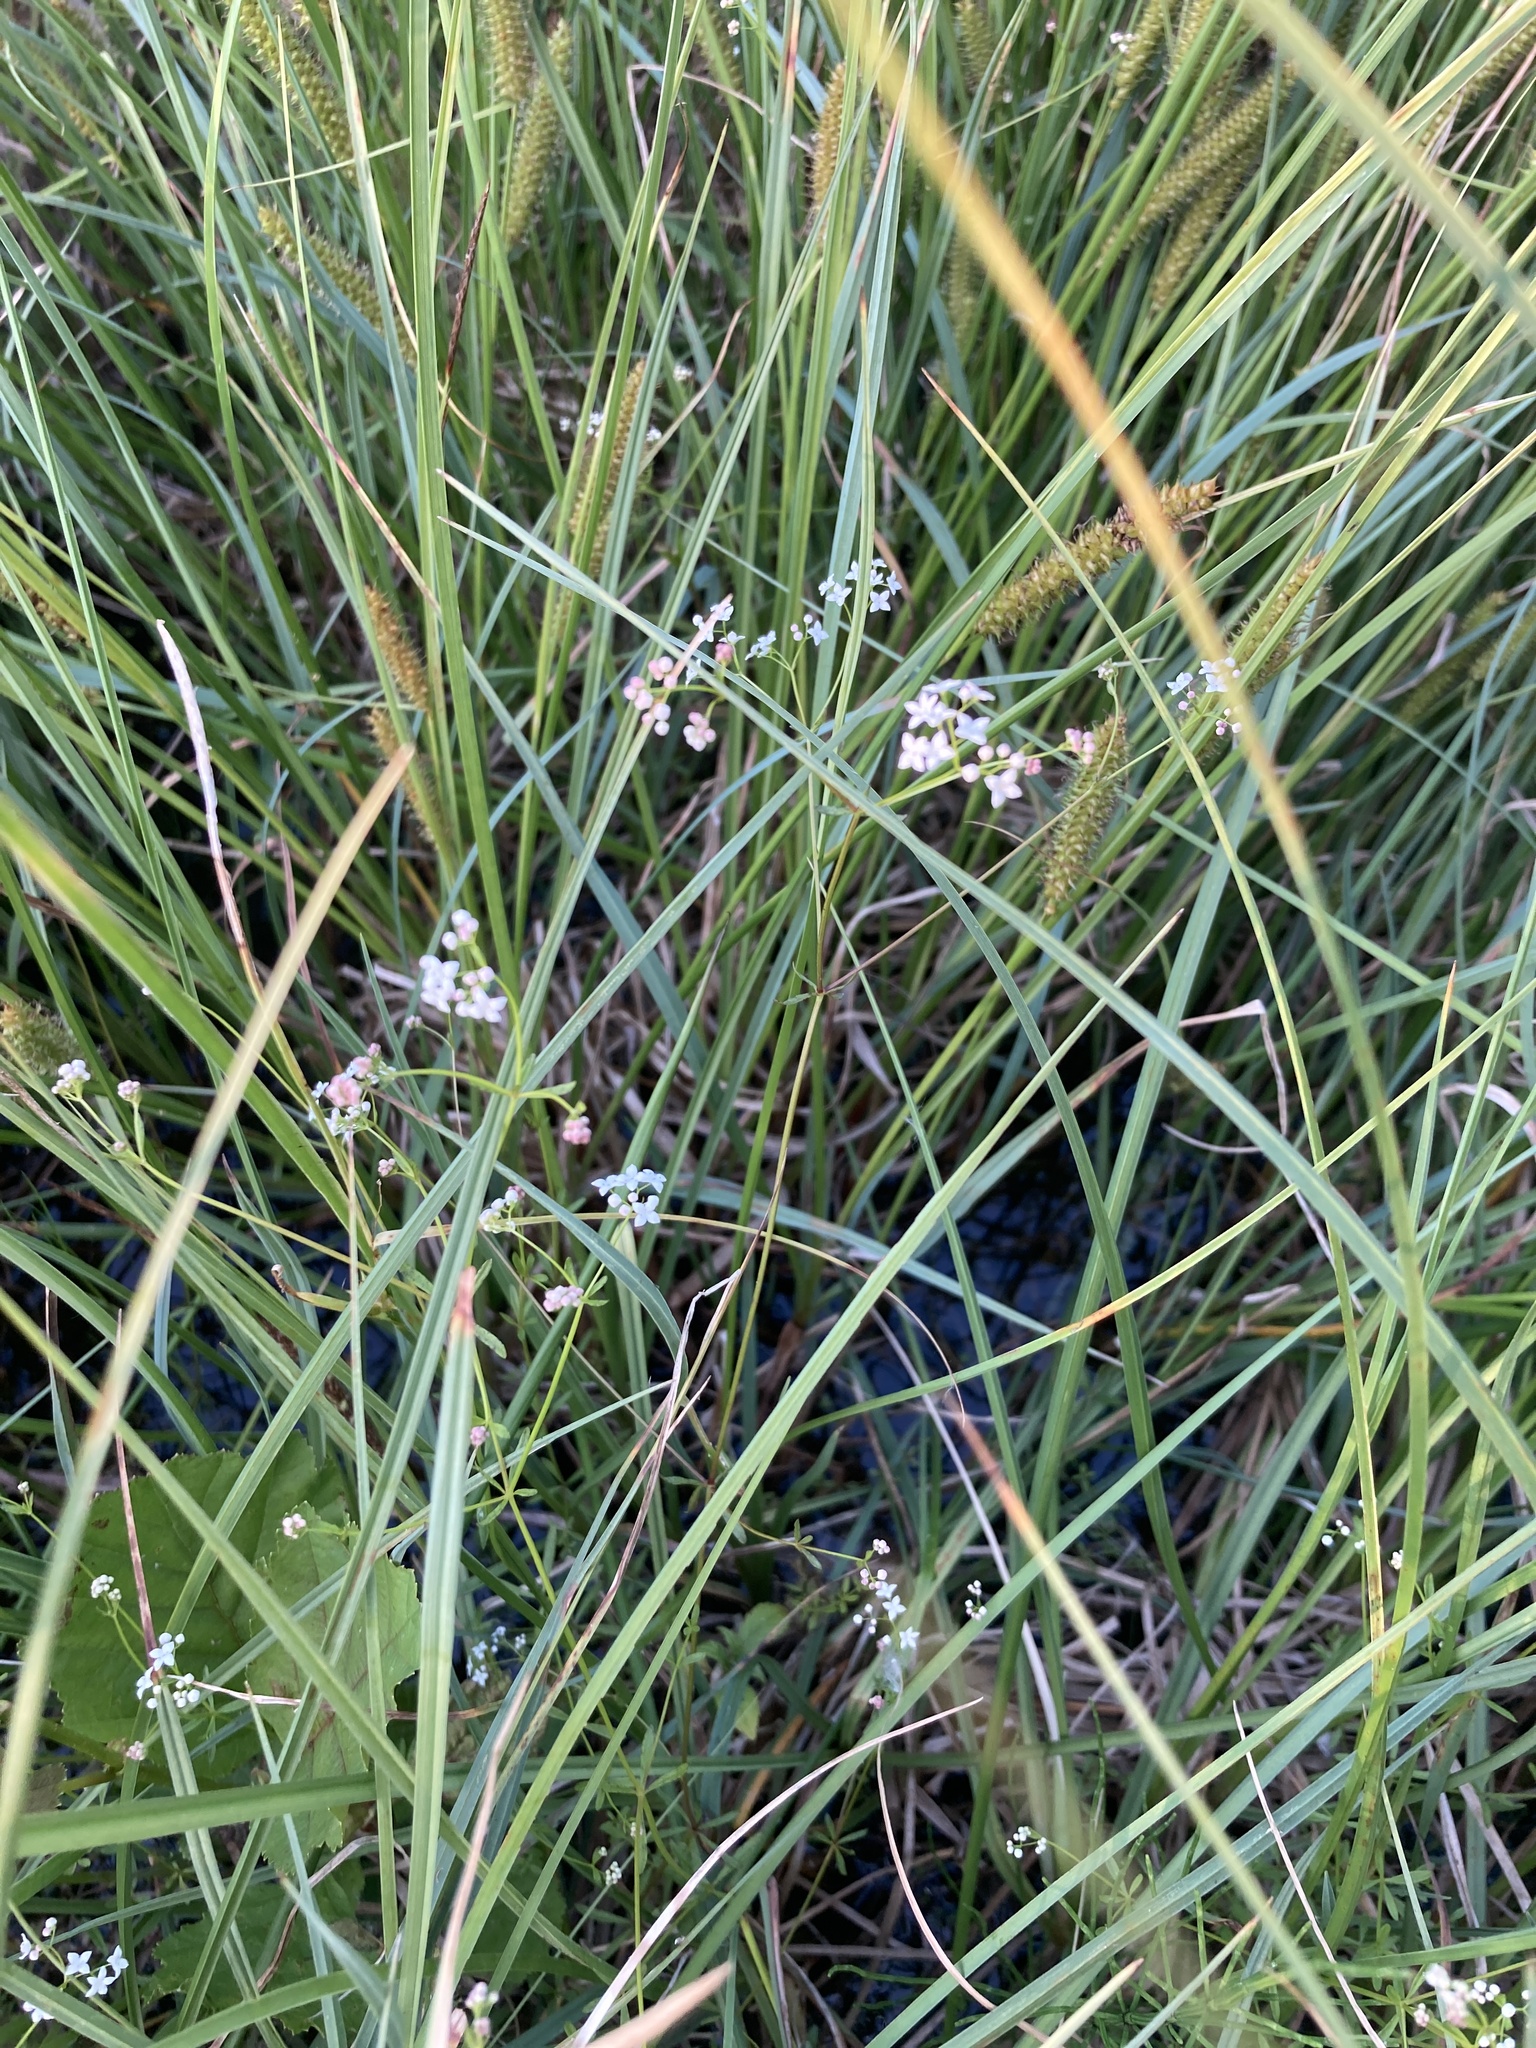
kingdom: Plantae
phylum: Tracheophyta
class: Magnoliopsida
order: Gentianales
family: Rubiaceae
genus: Galium
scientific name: Galium palustre
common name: Common marsh-bedstraw
